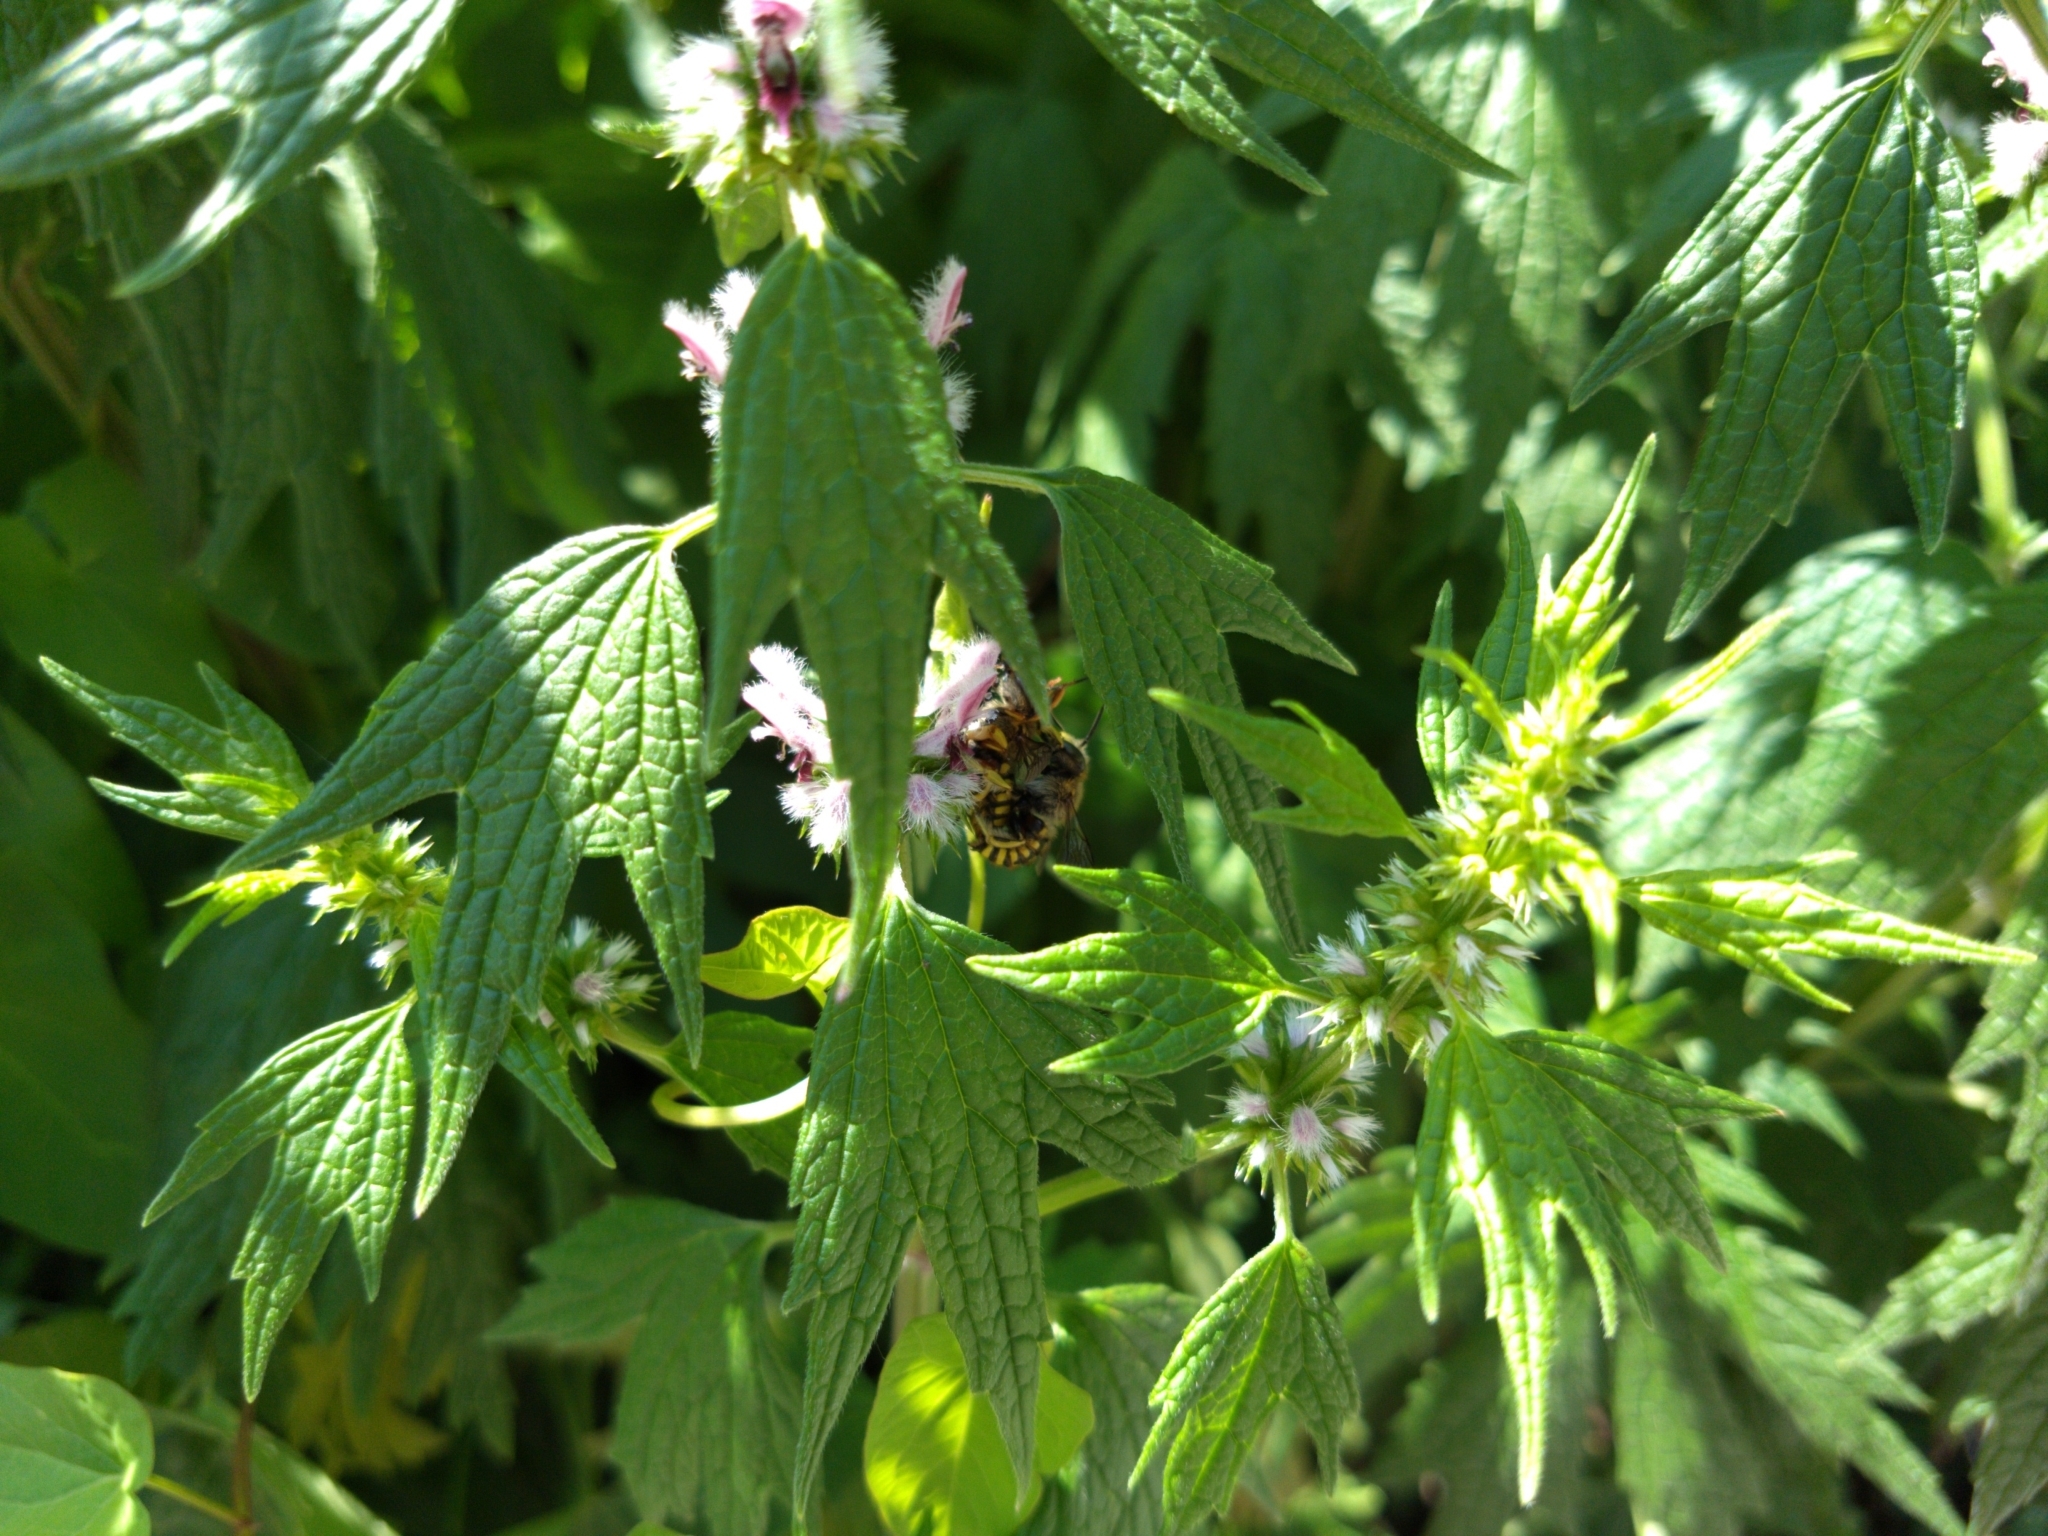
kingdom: Animalia
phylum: Arthropoda
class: Insecta
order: Hymenoptera
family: Megachilidae
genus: Anthidium
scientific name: Anthidium manicatum
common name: Wool carder bee
